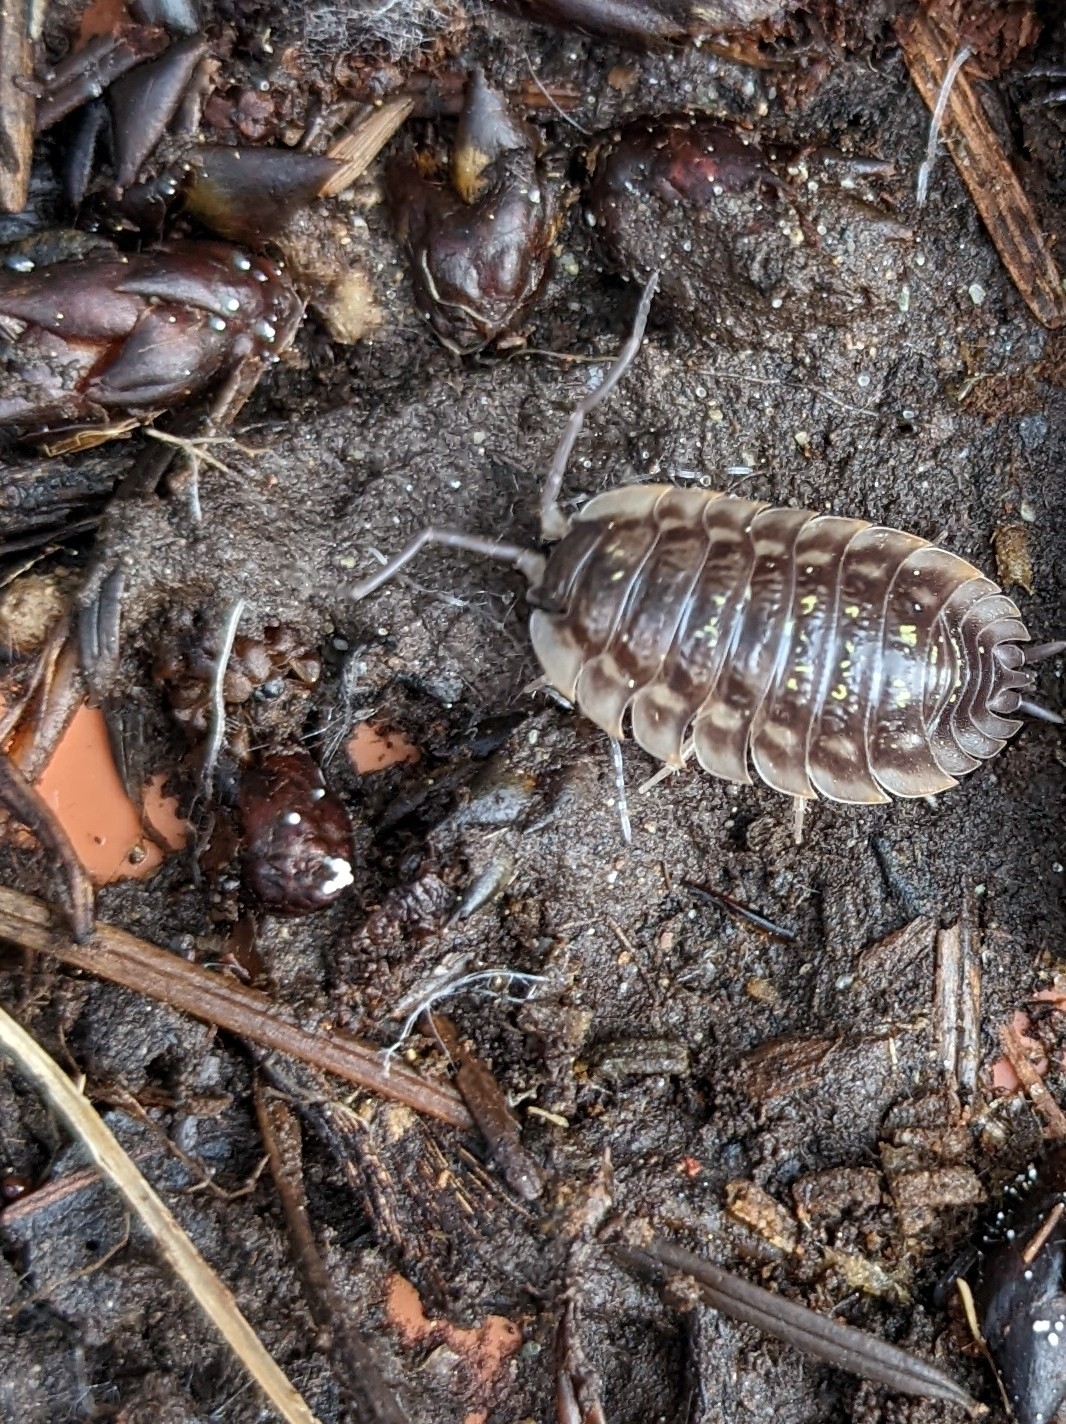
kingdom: Animalia
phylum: Arthropoda
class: Malacostraca
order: Isopoda
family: Oniscidae
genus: Oniscus
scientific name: Oniscus asellus
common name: Common shiny woodlouse
